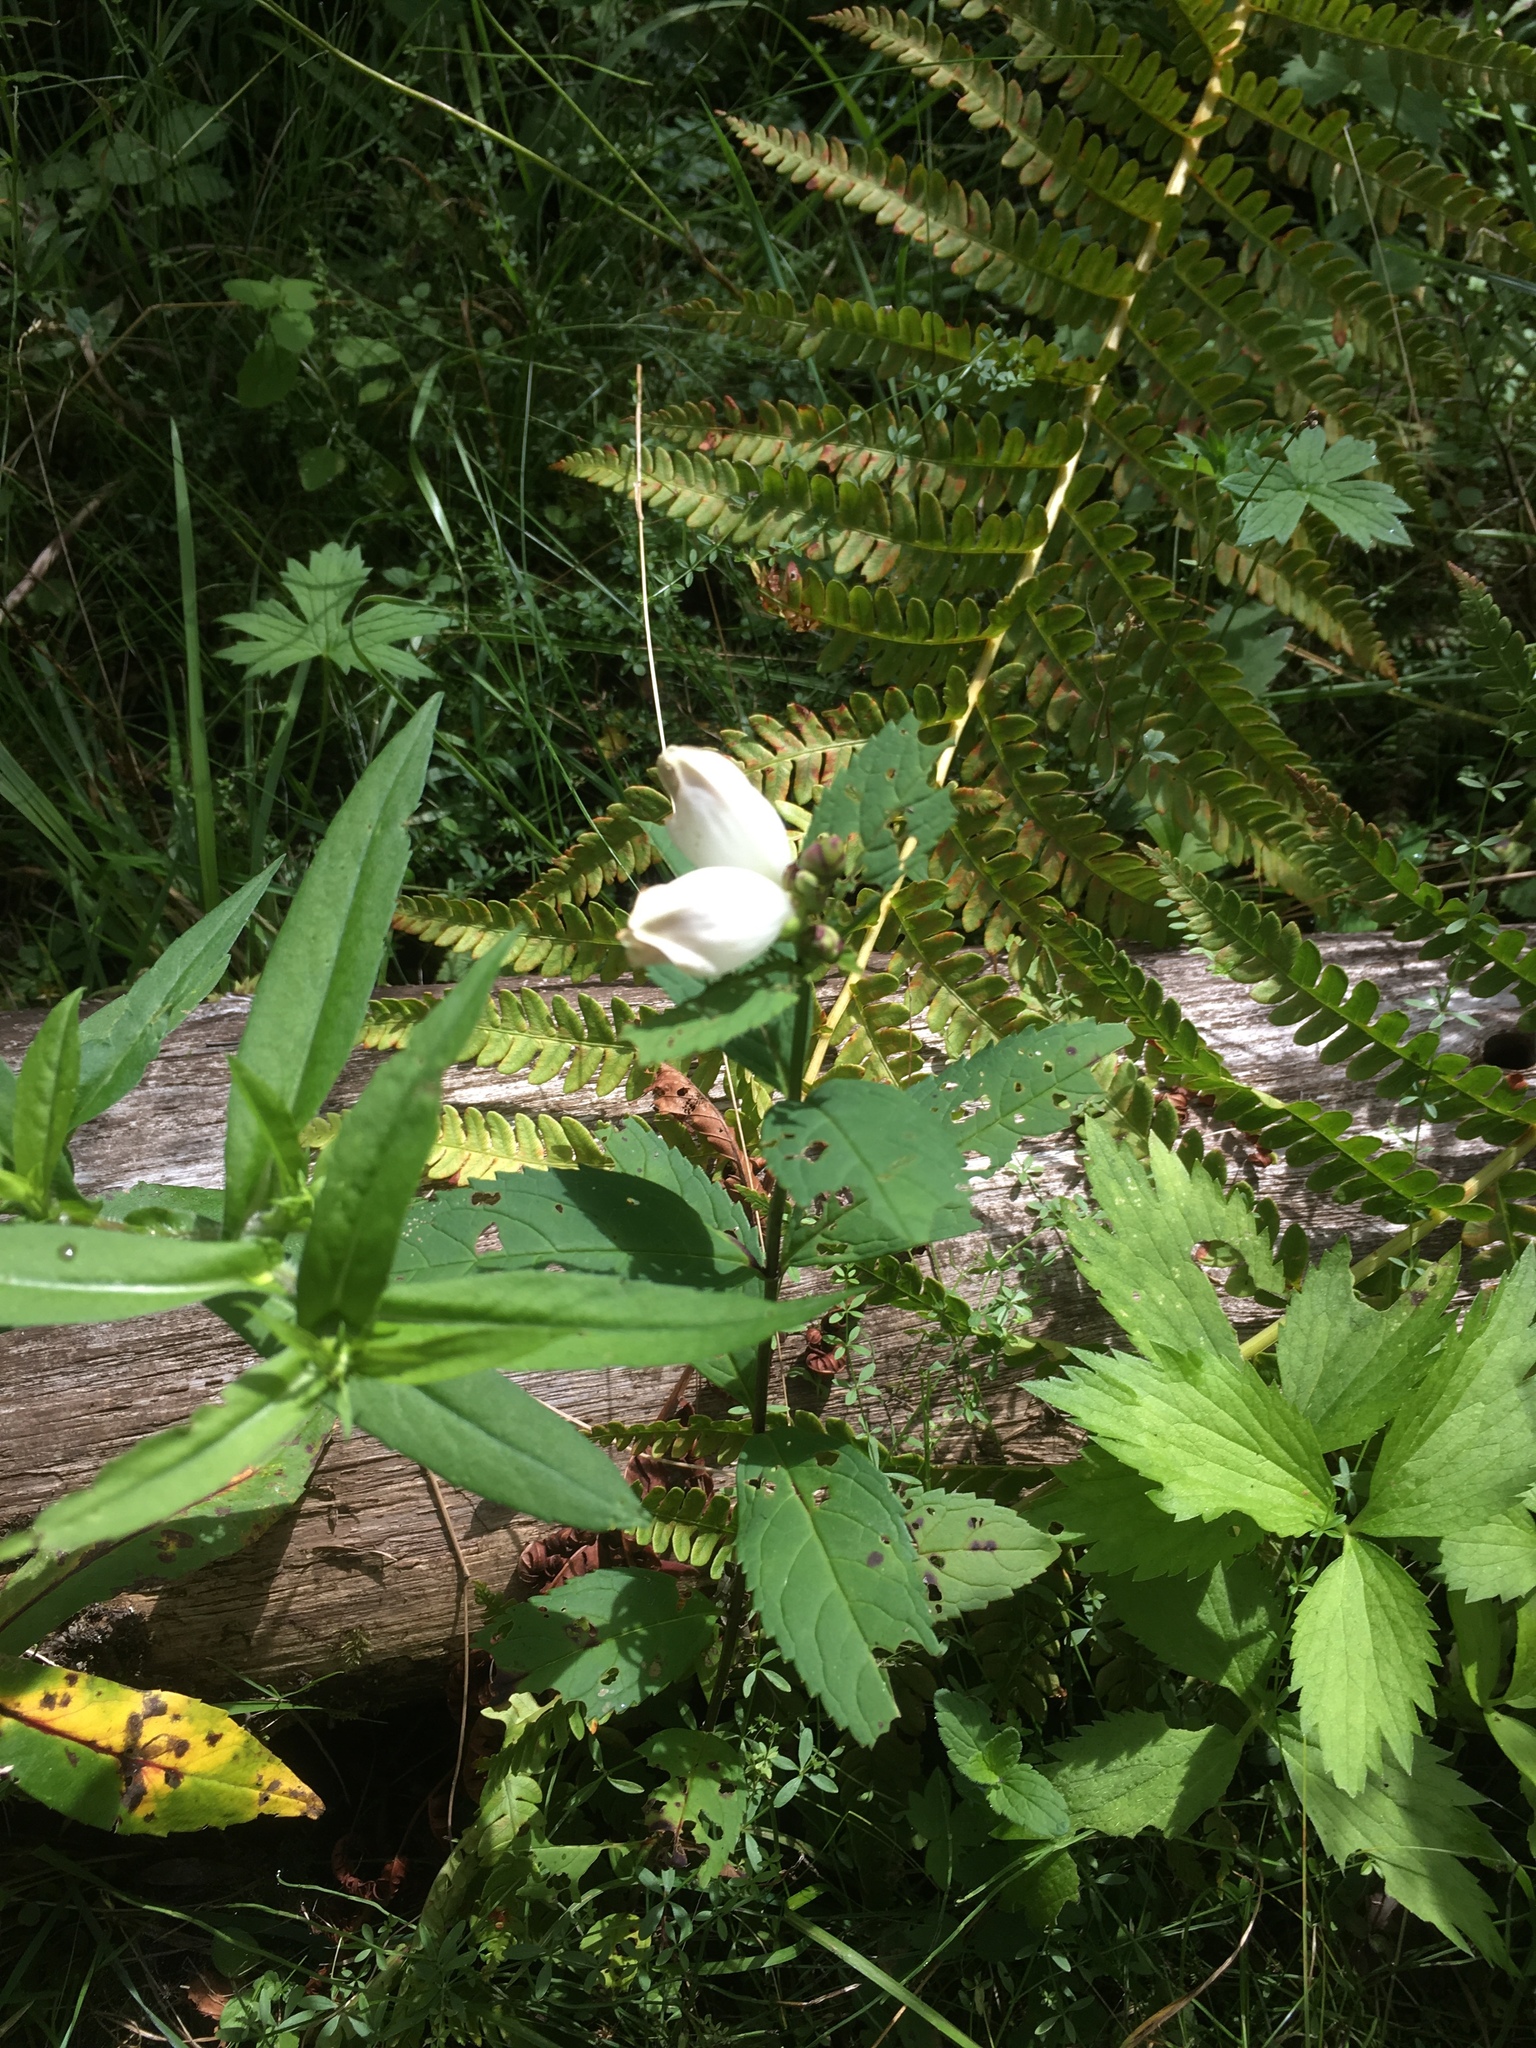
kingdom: Plantae
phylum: Tracheophyta
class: Magnoliopsida
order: Lamiales
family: Plantaginaceae
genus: Chelone
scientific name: Chelone glabra
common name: Snakehead
